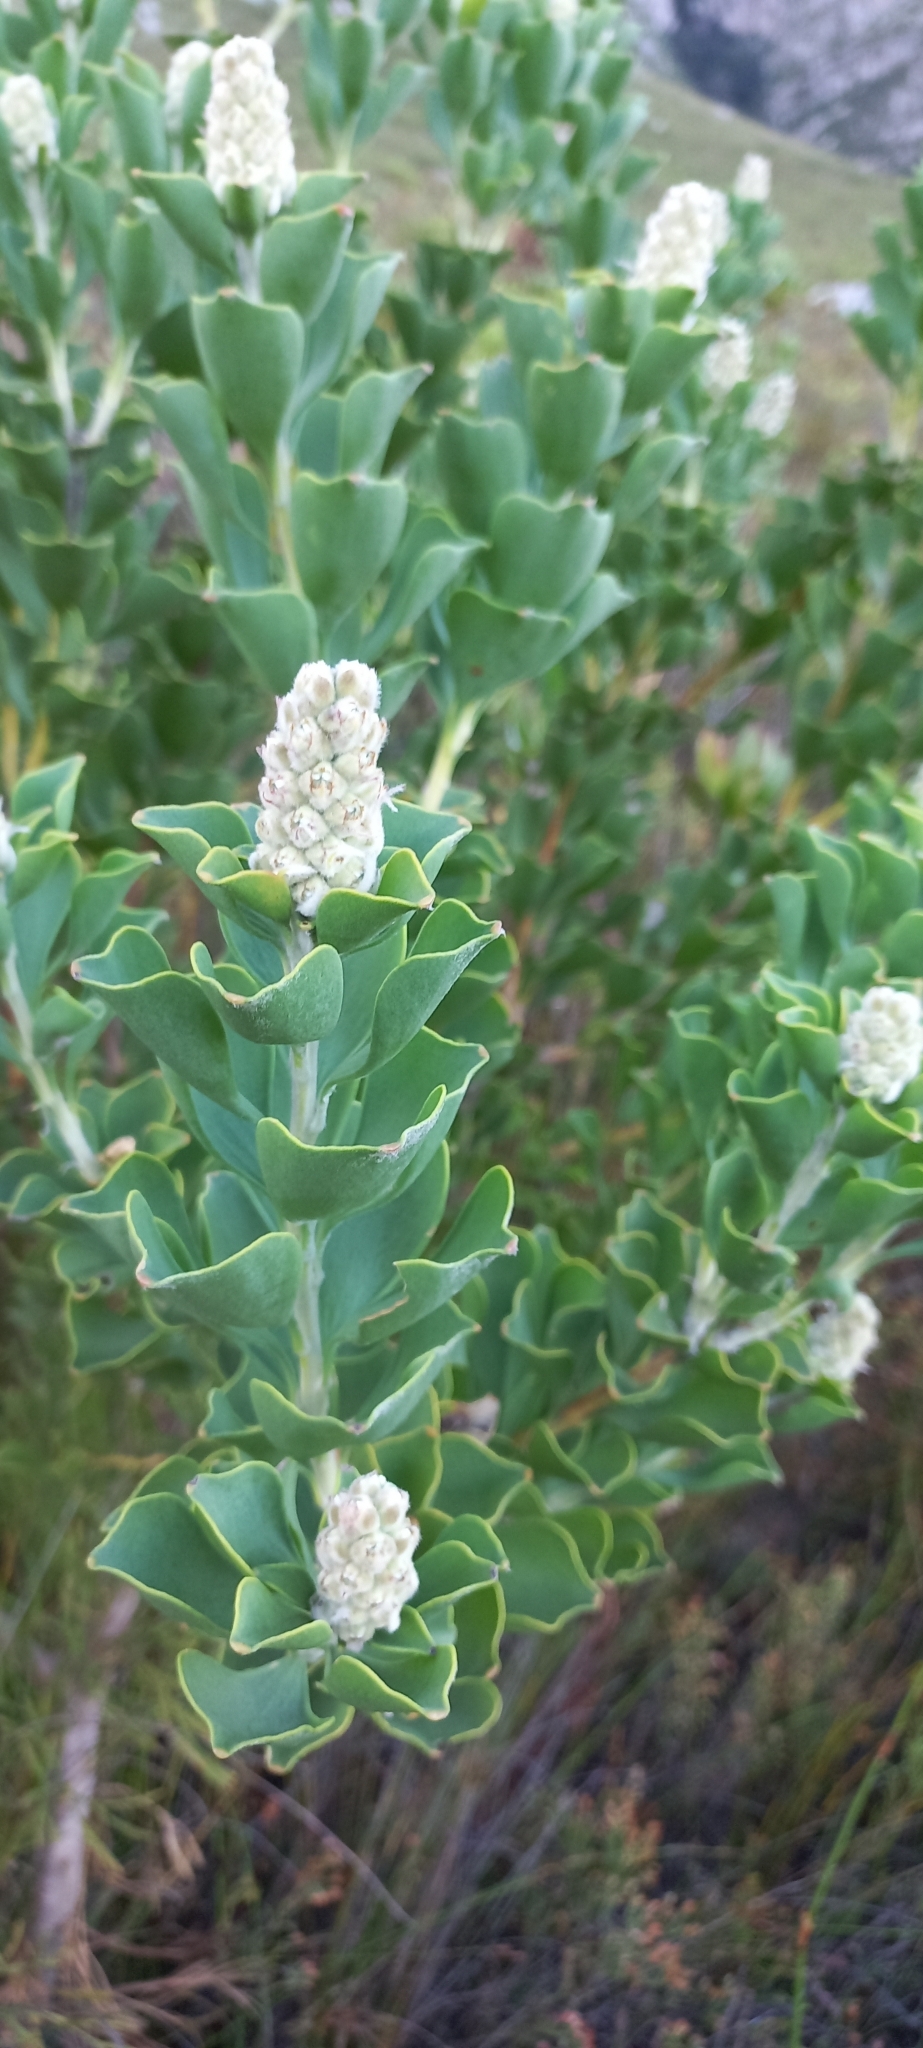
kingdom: Plantae
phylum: Tracheophyta
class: Magnoliopsida
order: Proteales
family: Proteaceae
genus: Paranomus
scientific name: Paranomus sceptrum-gustavianus
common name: King gustav's sceptre
